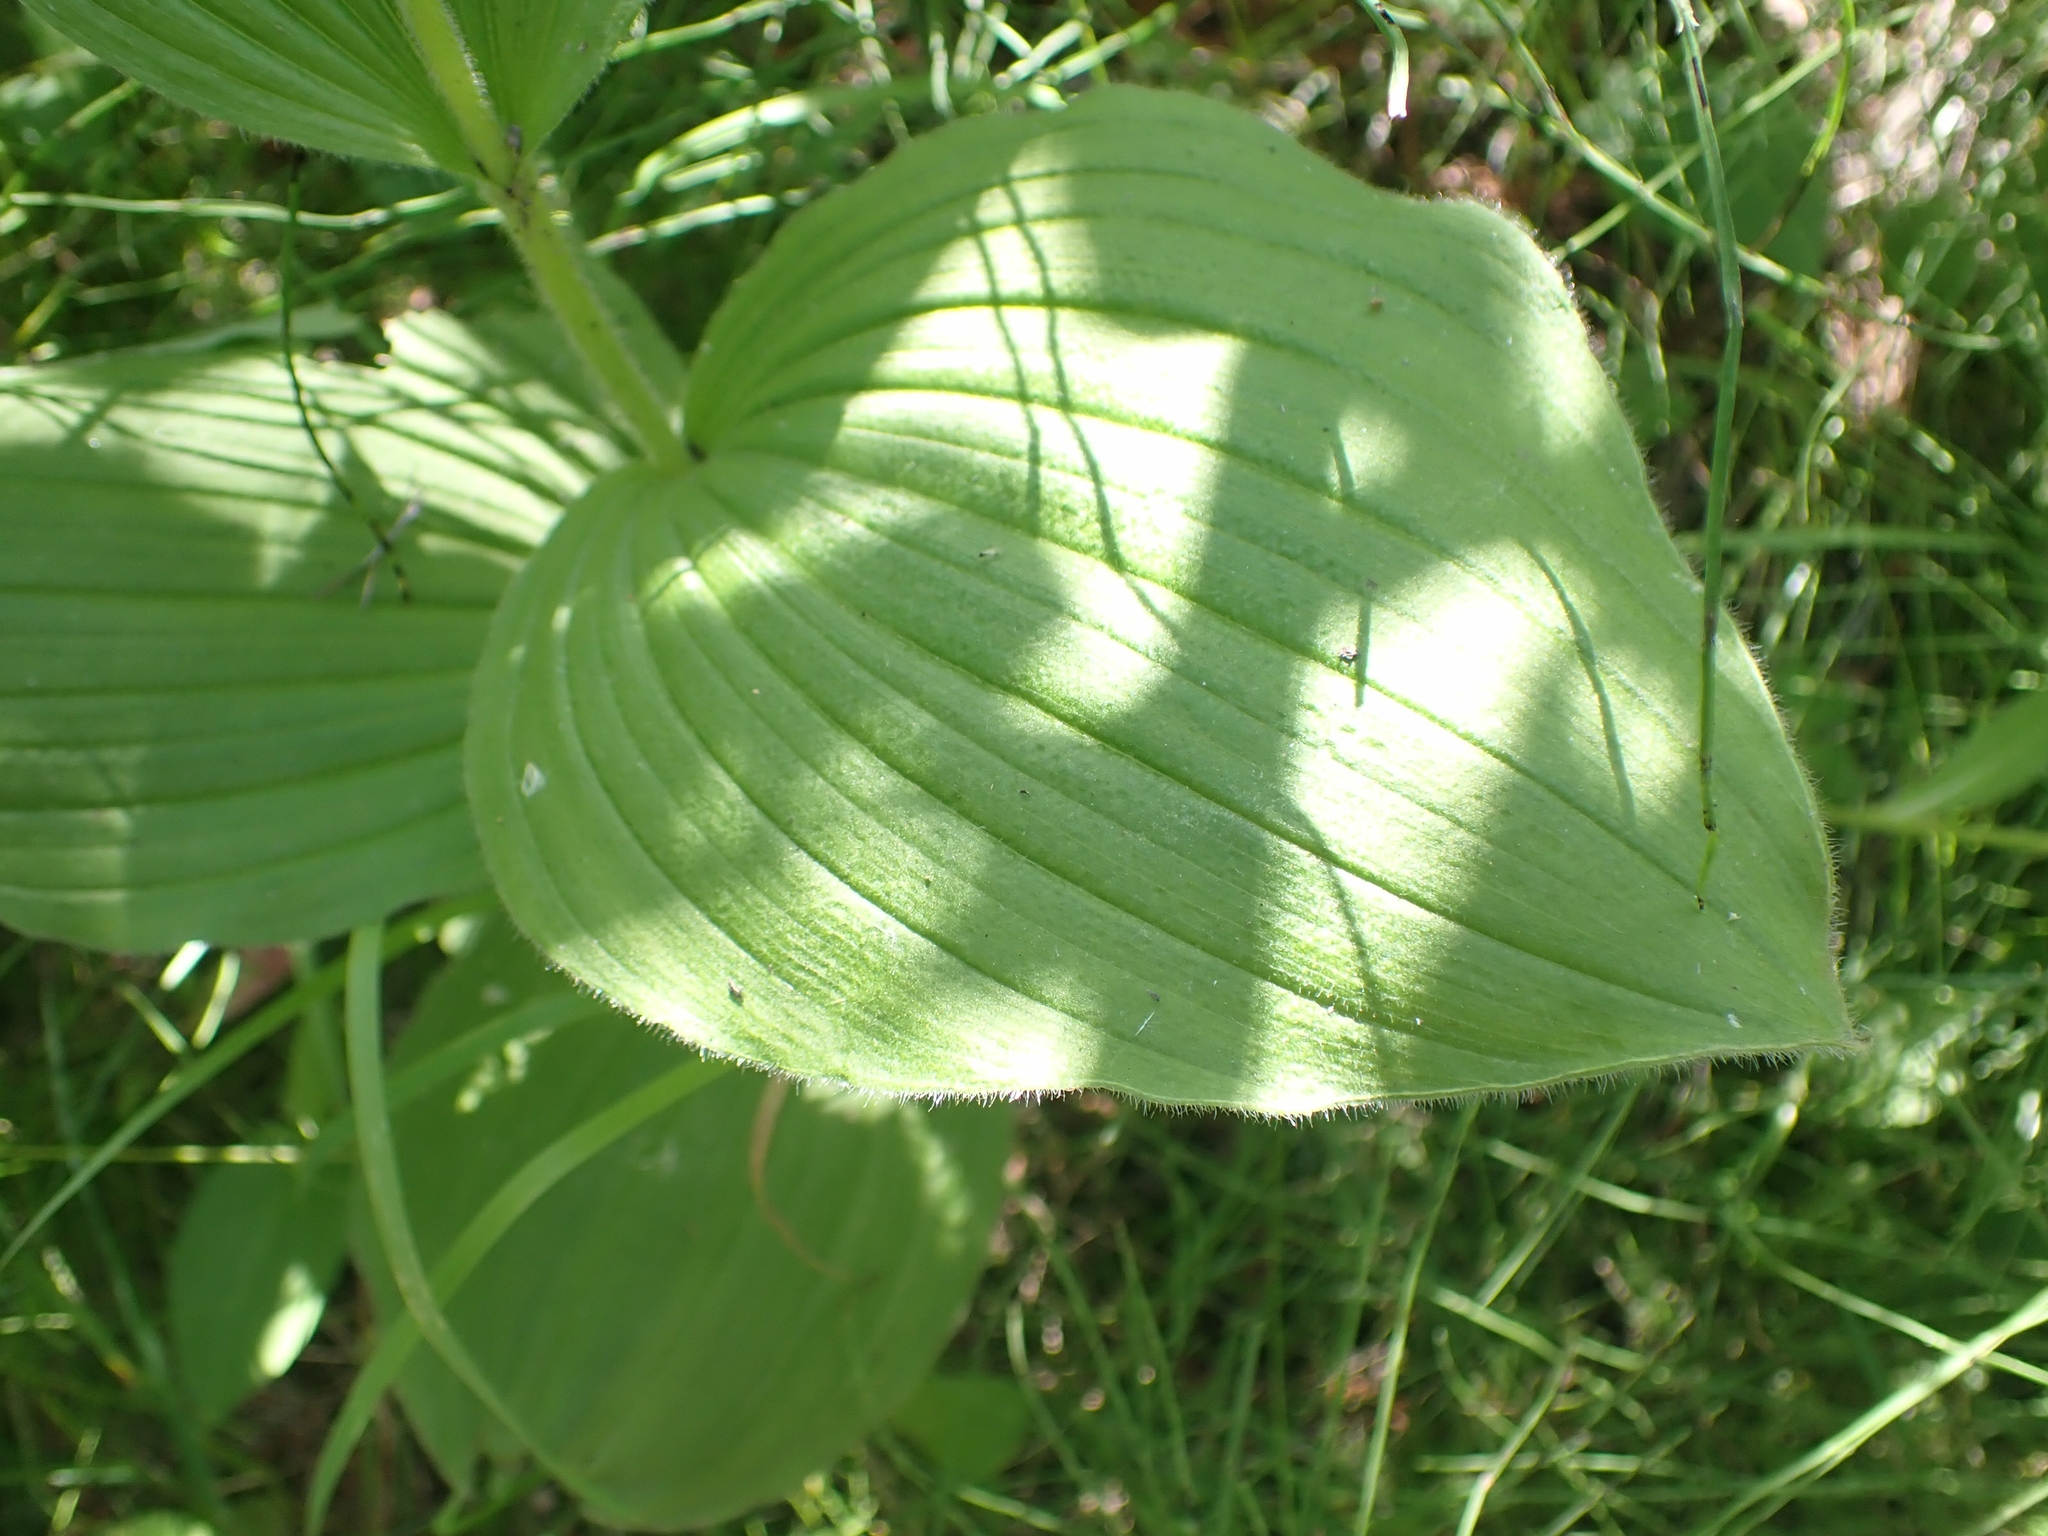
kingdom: Plantae
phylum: Tracheophyta
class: Liliopsida
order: Asparagales
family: Orchidaceae
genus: Cypripedium
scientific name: Cypripedium reginae
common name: Queen lady's-slipper
